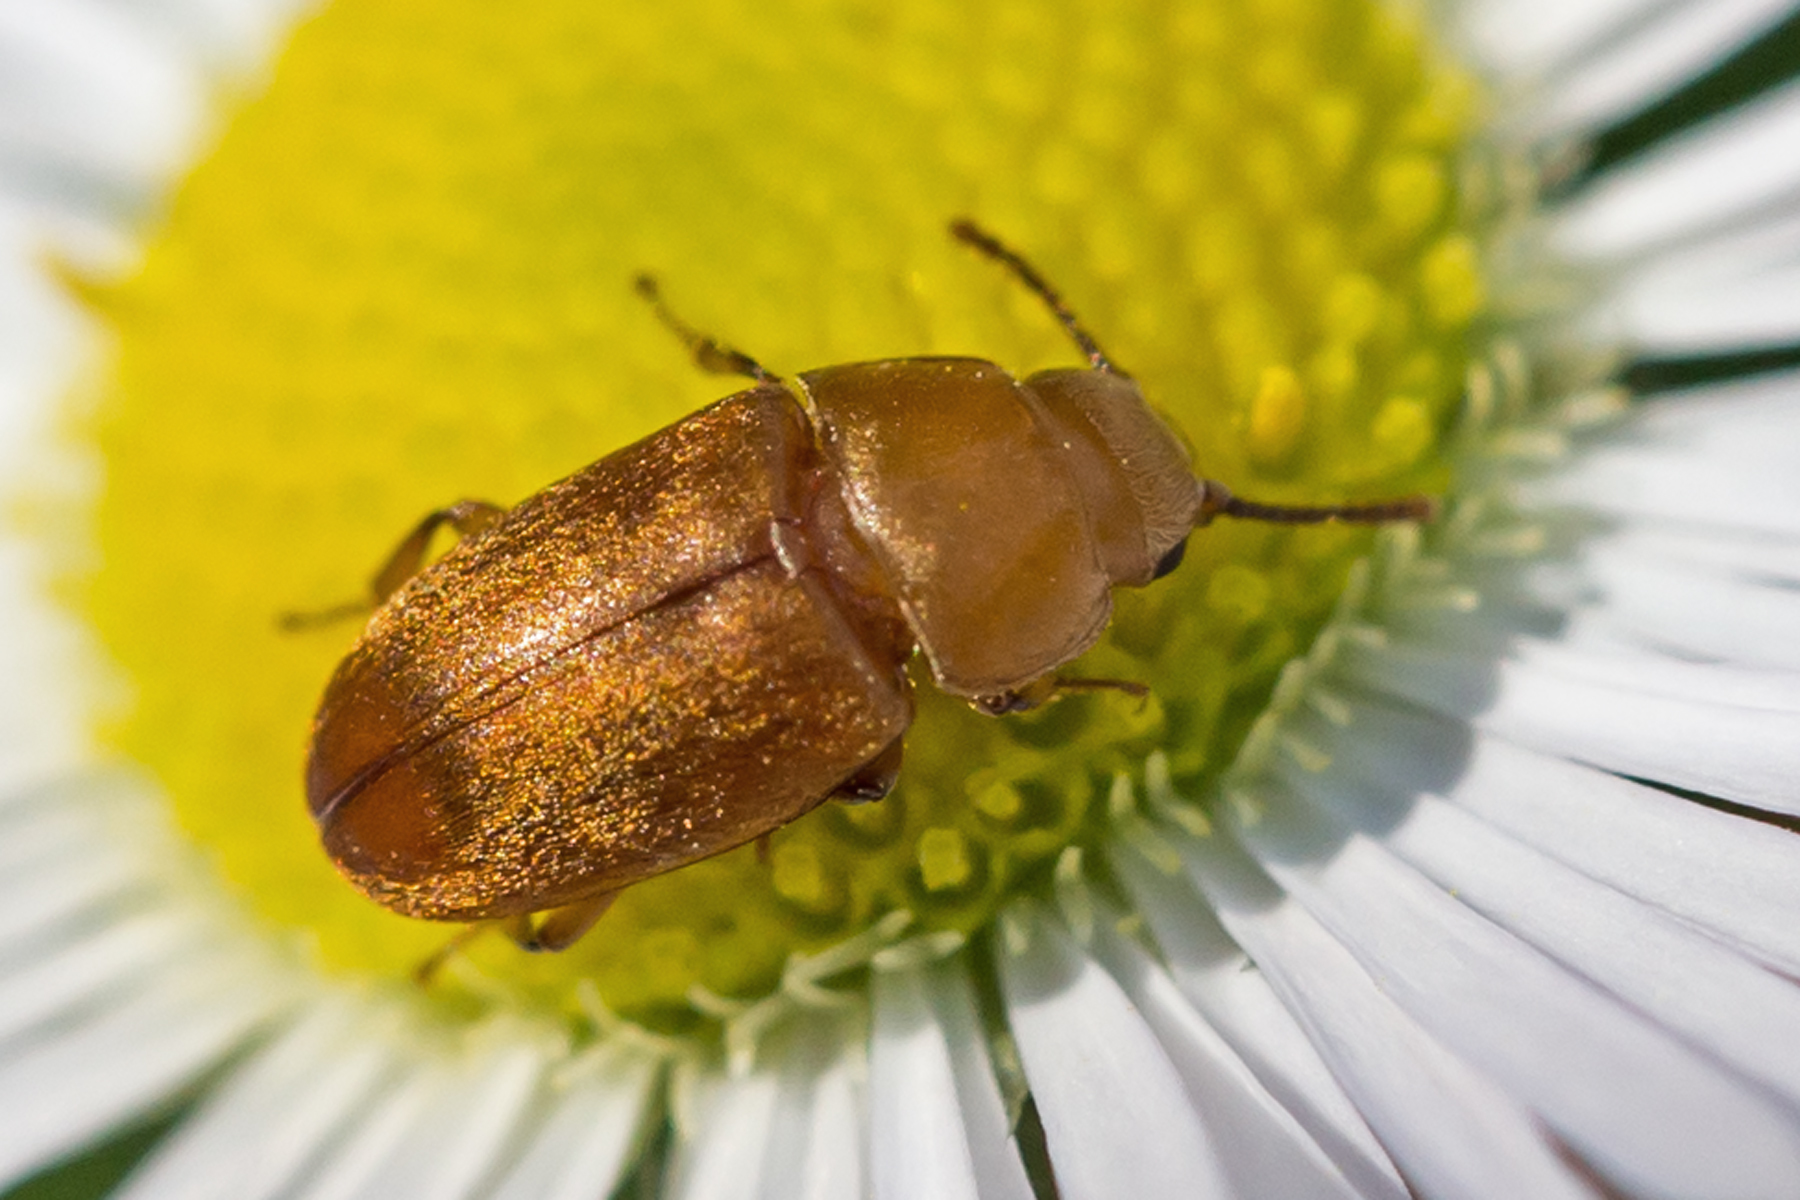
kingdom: Animalia
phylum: Arthropoda
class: Insecta
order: Coleoptera
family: Cryptophagidae
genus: Antherophagus
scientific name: Antherophagus ochraceus
